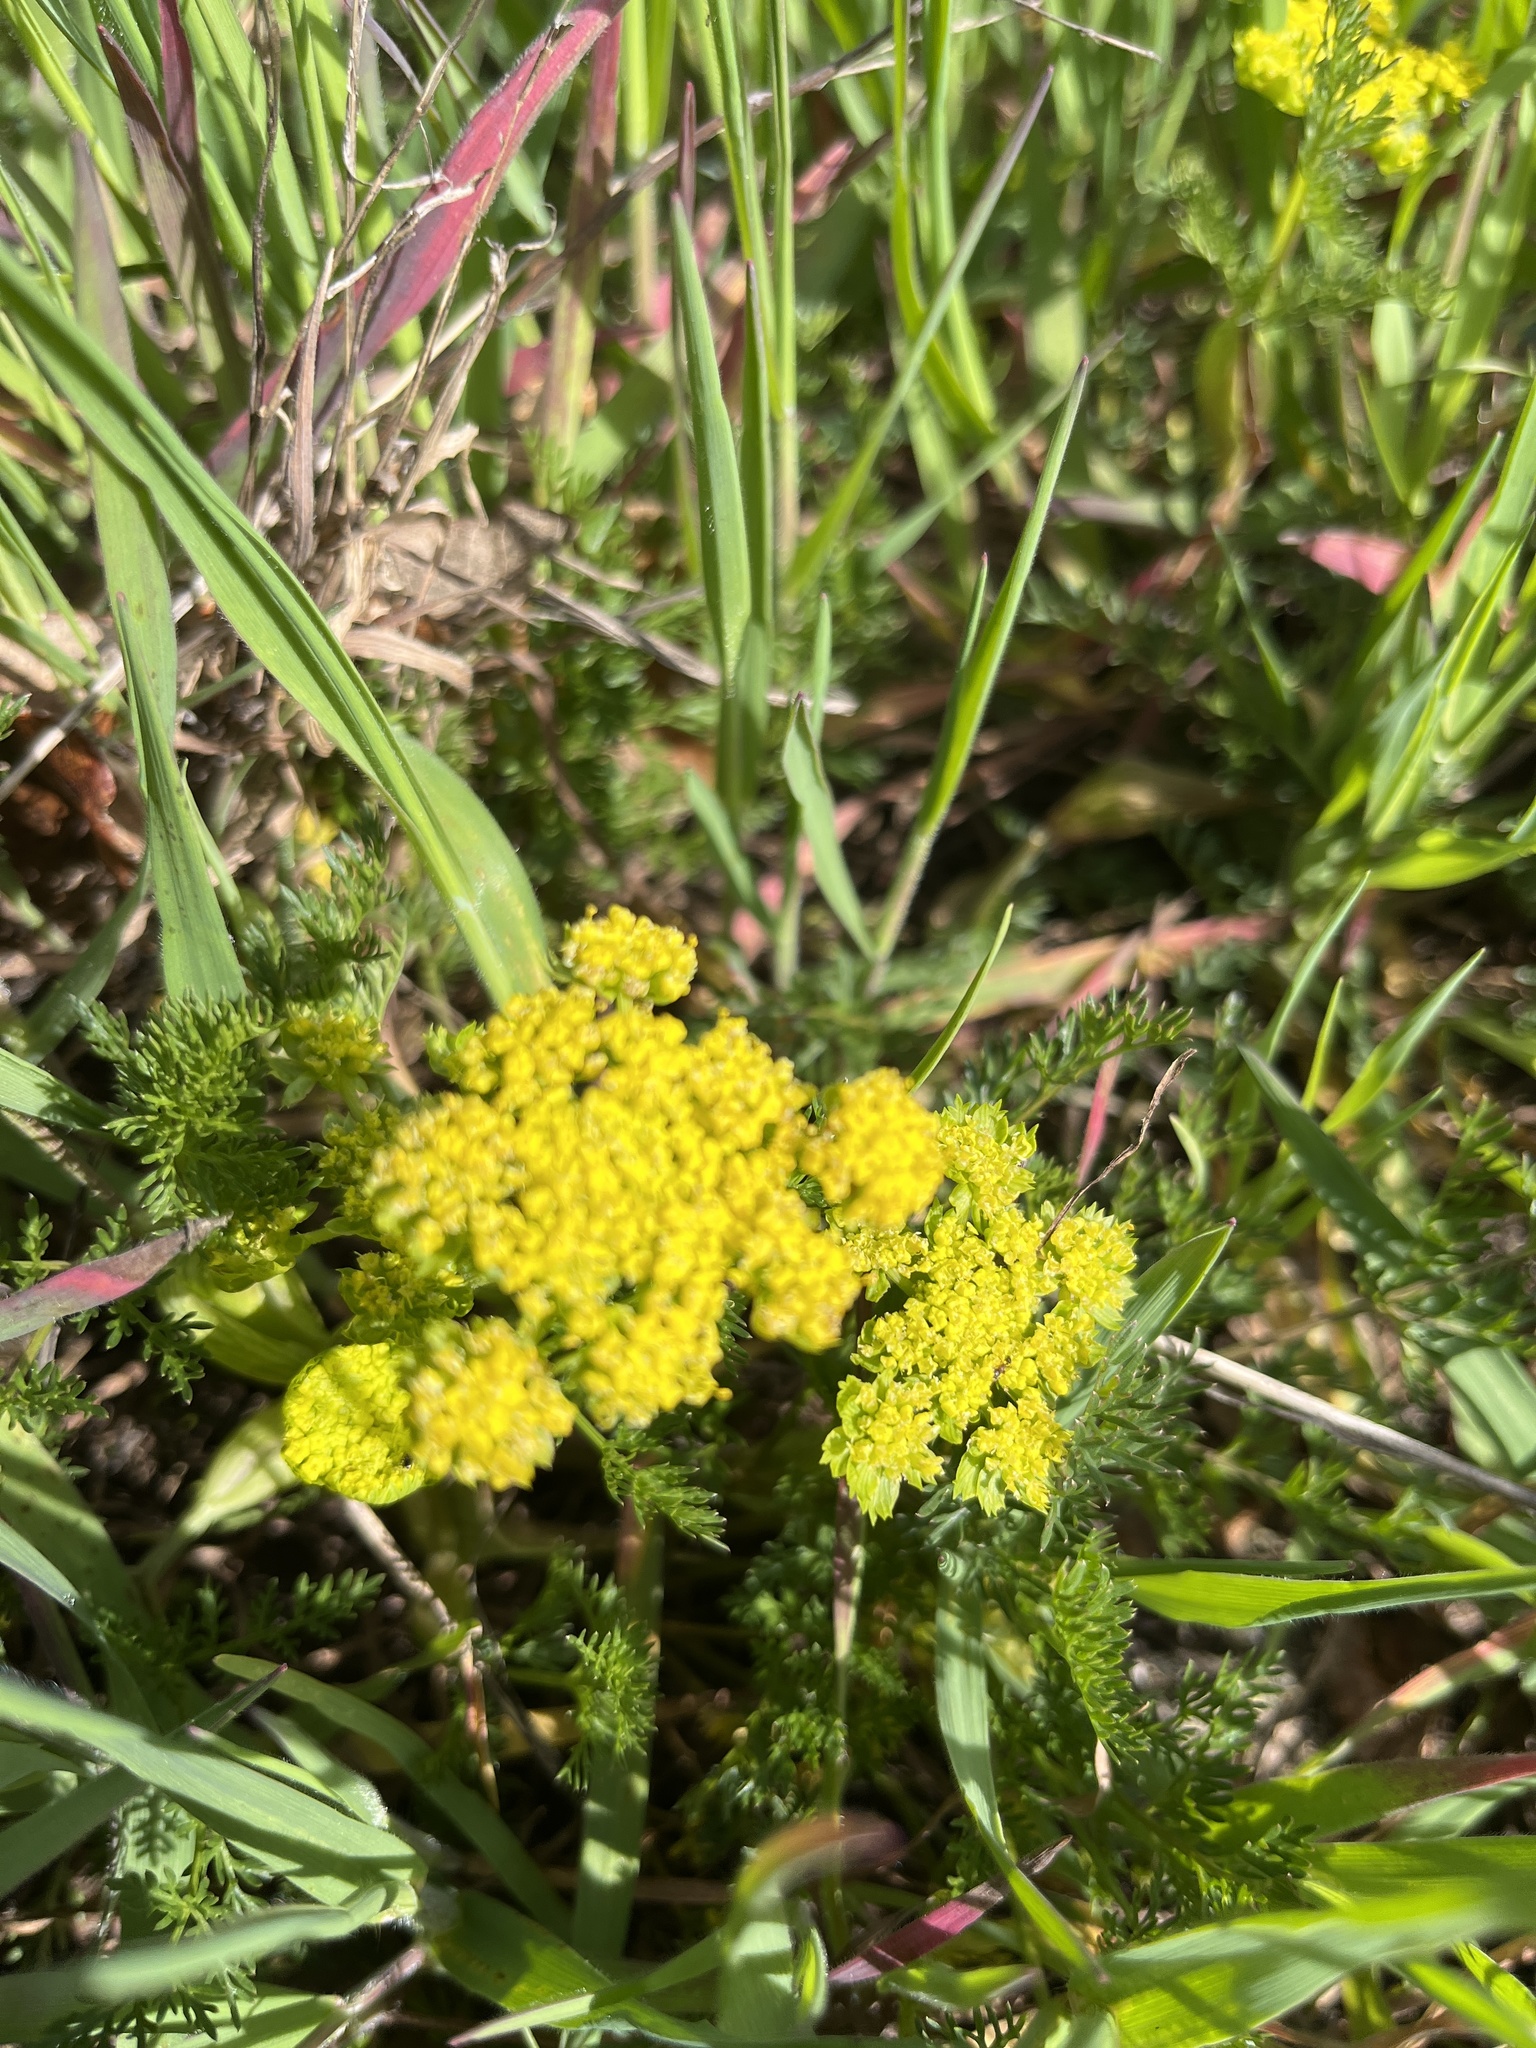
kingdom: Plantae
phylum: Tracheophyta
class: Magnoliopsida
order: Apiales
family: Apiaceae
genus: Lomatium
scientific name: Lomatium utriculatum
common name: Fine-leaf desert-parsley
